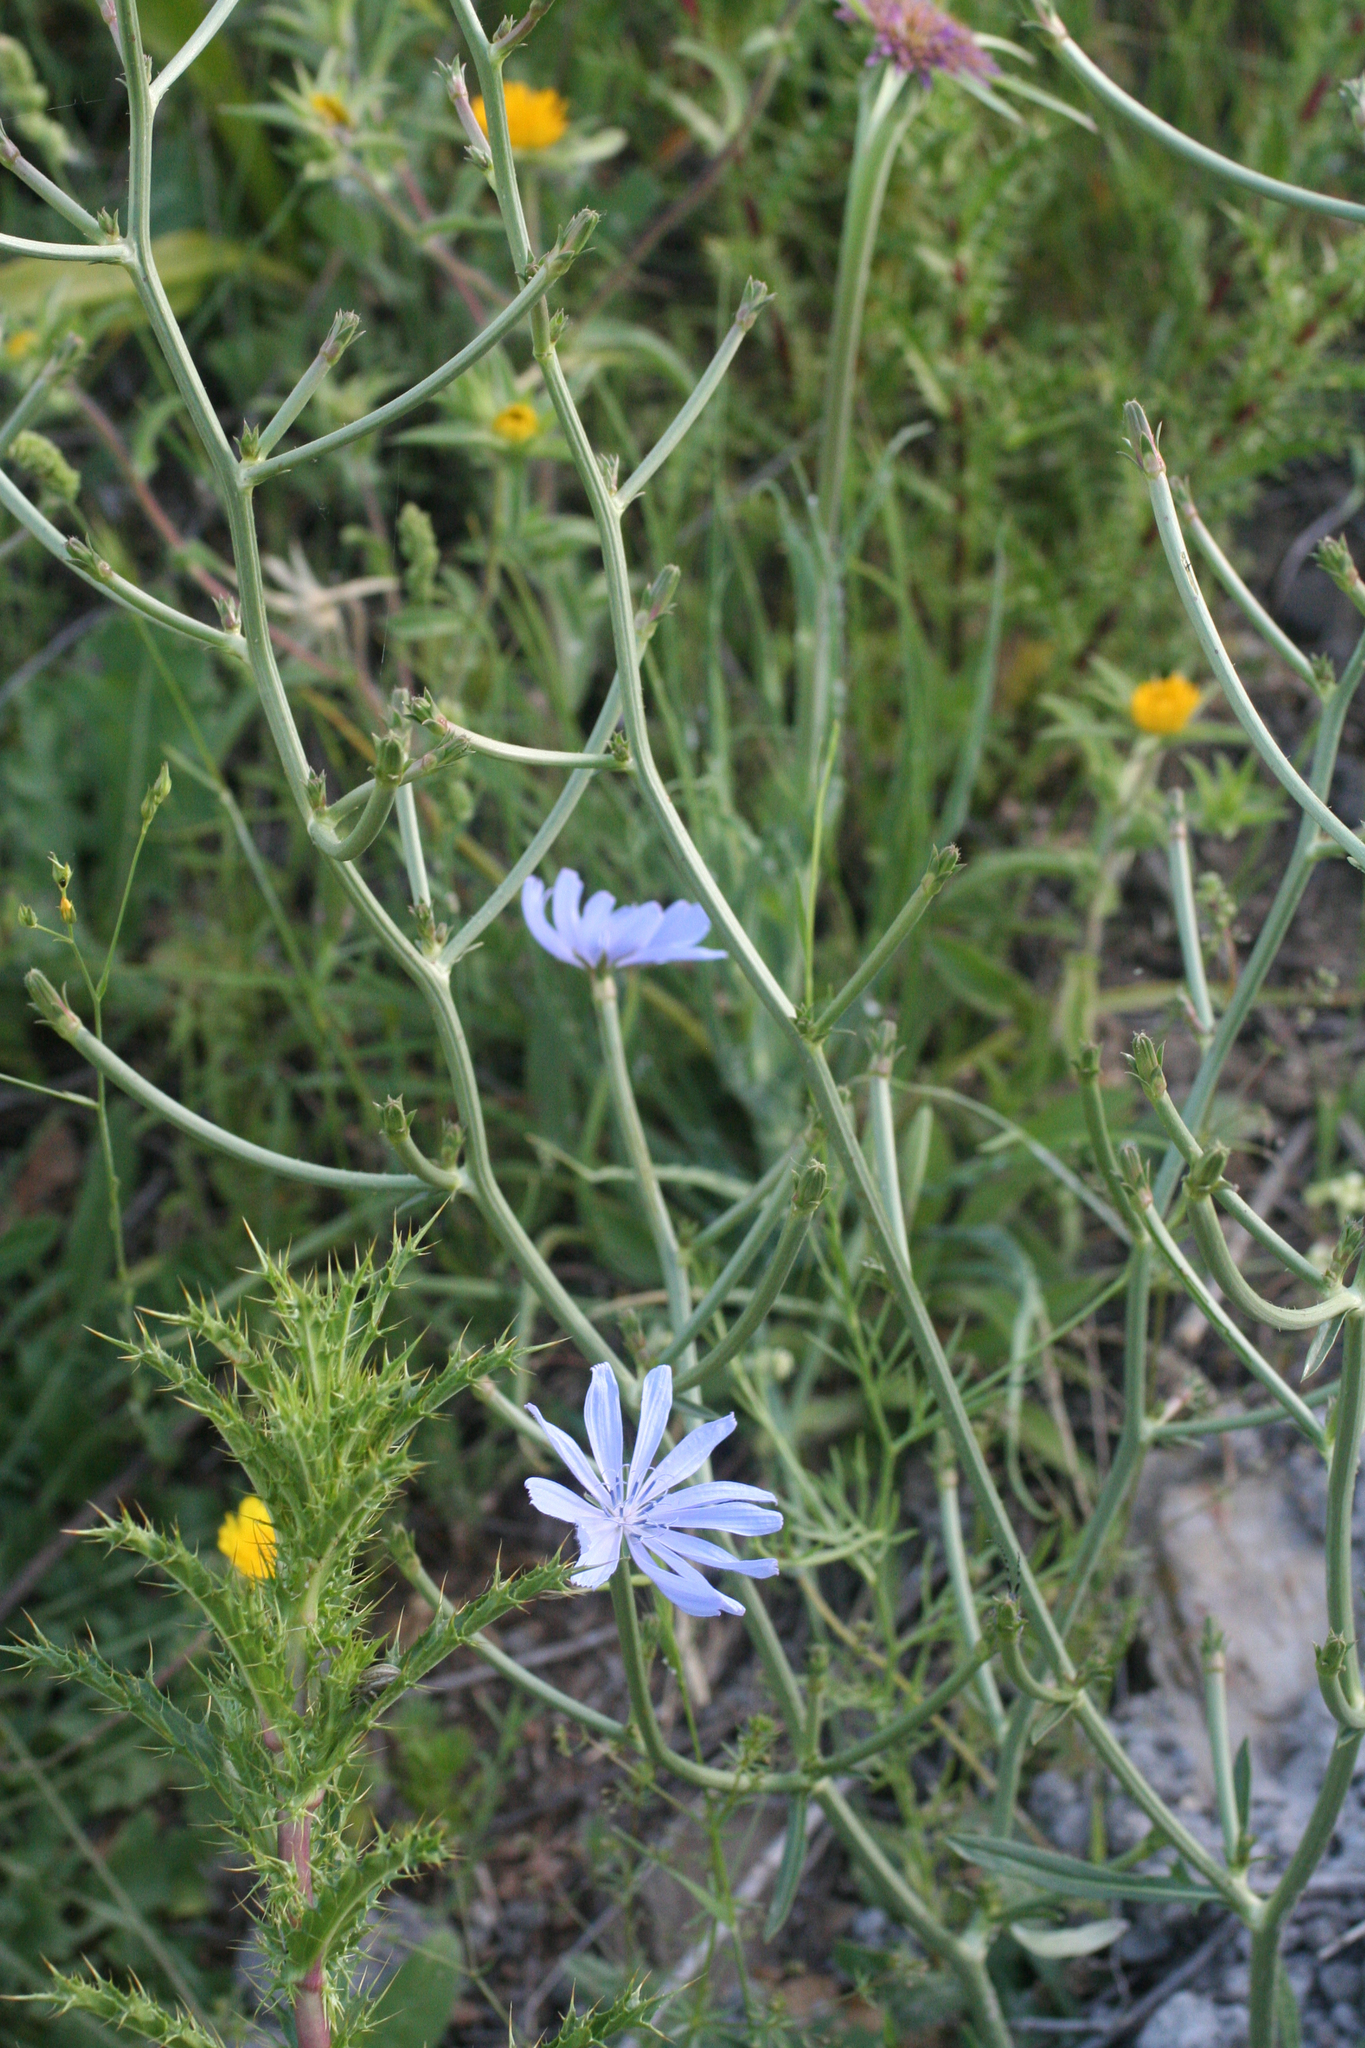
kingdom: Plantae
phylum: Tracheophyta
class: Magnoliopsida
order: Asterales
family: Asteraceae
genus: Cichorium
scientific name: Cichorium intybus
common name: Chicory
